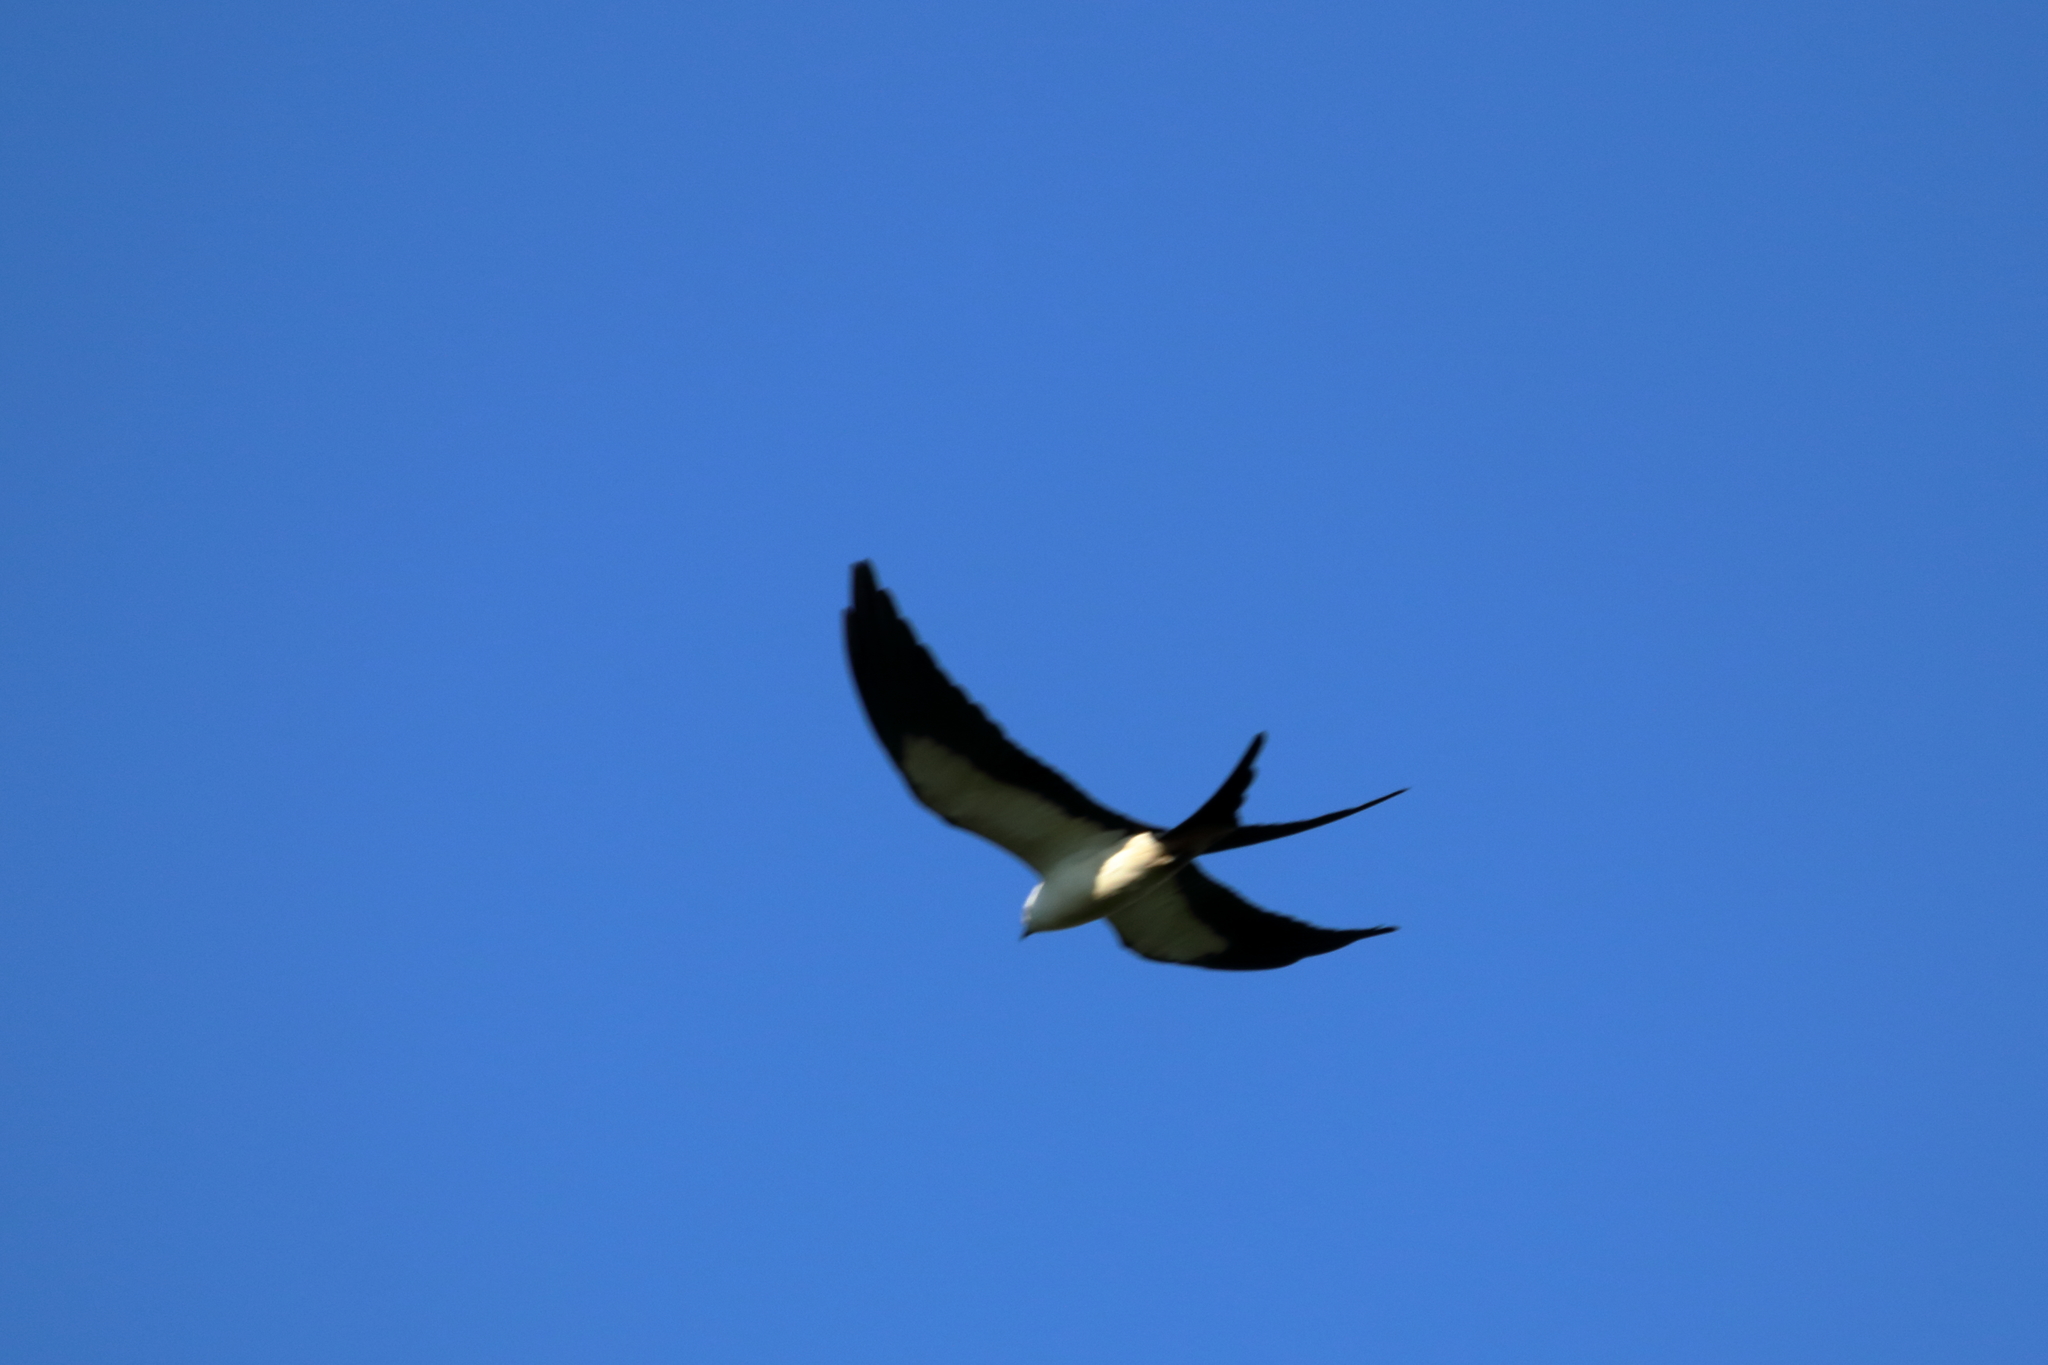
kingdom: Animalia
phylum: Chordata
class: Aves
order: Accipitriformes
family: Accipitridae
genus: Elanoides
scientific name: Elanoides forficatus
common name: Swallow-tailed kite
